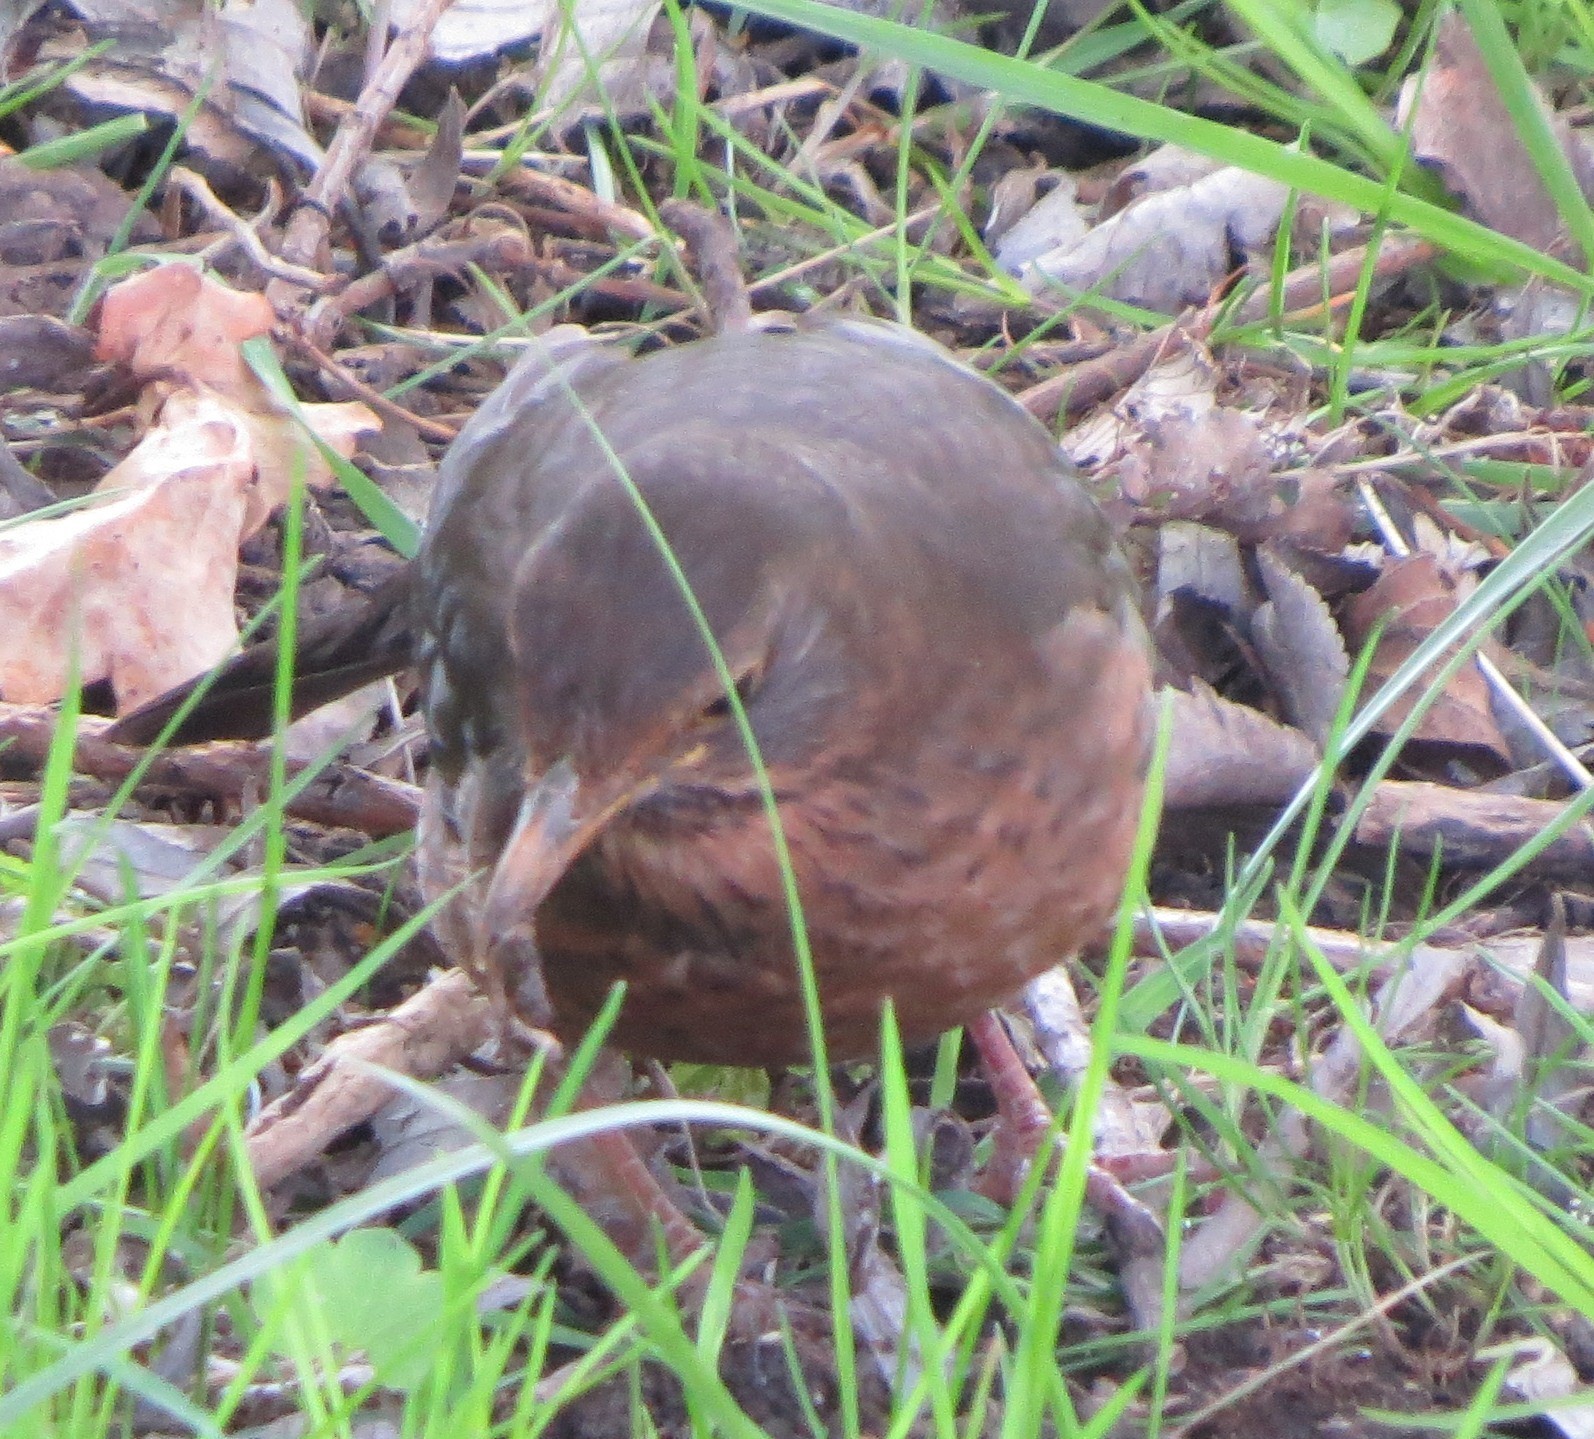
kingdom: Animalia
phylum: Chordata
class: Aves
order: Passeriformes
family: Turdidae
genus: Turdus
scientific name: Turdus merula
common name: Common blackbird
